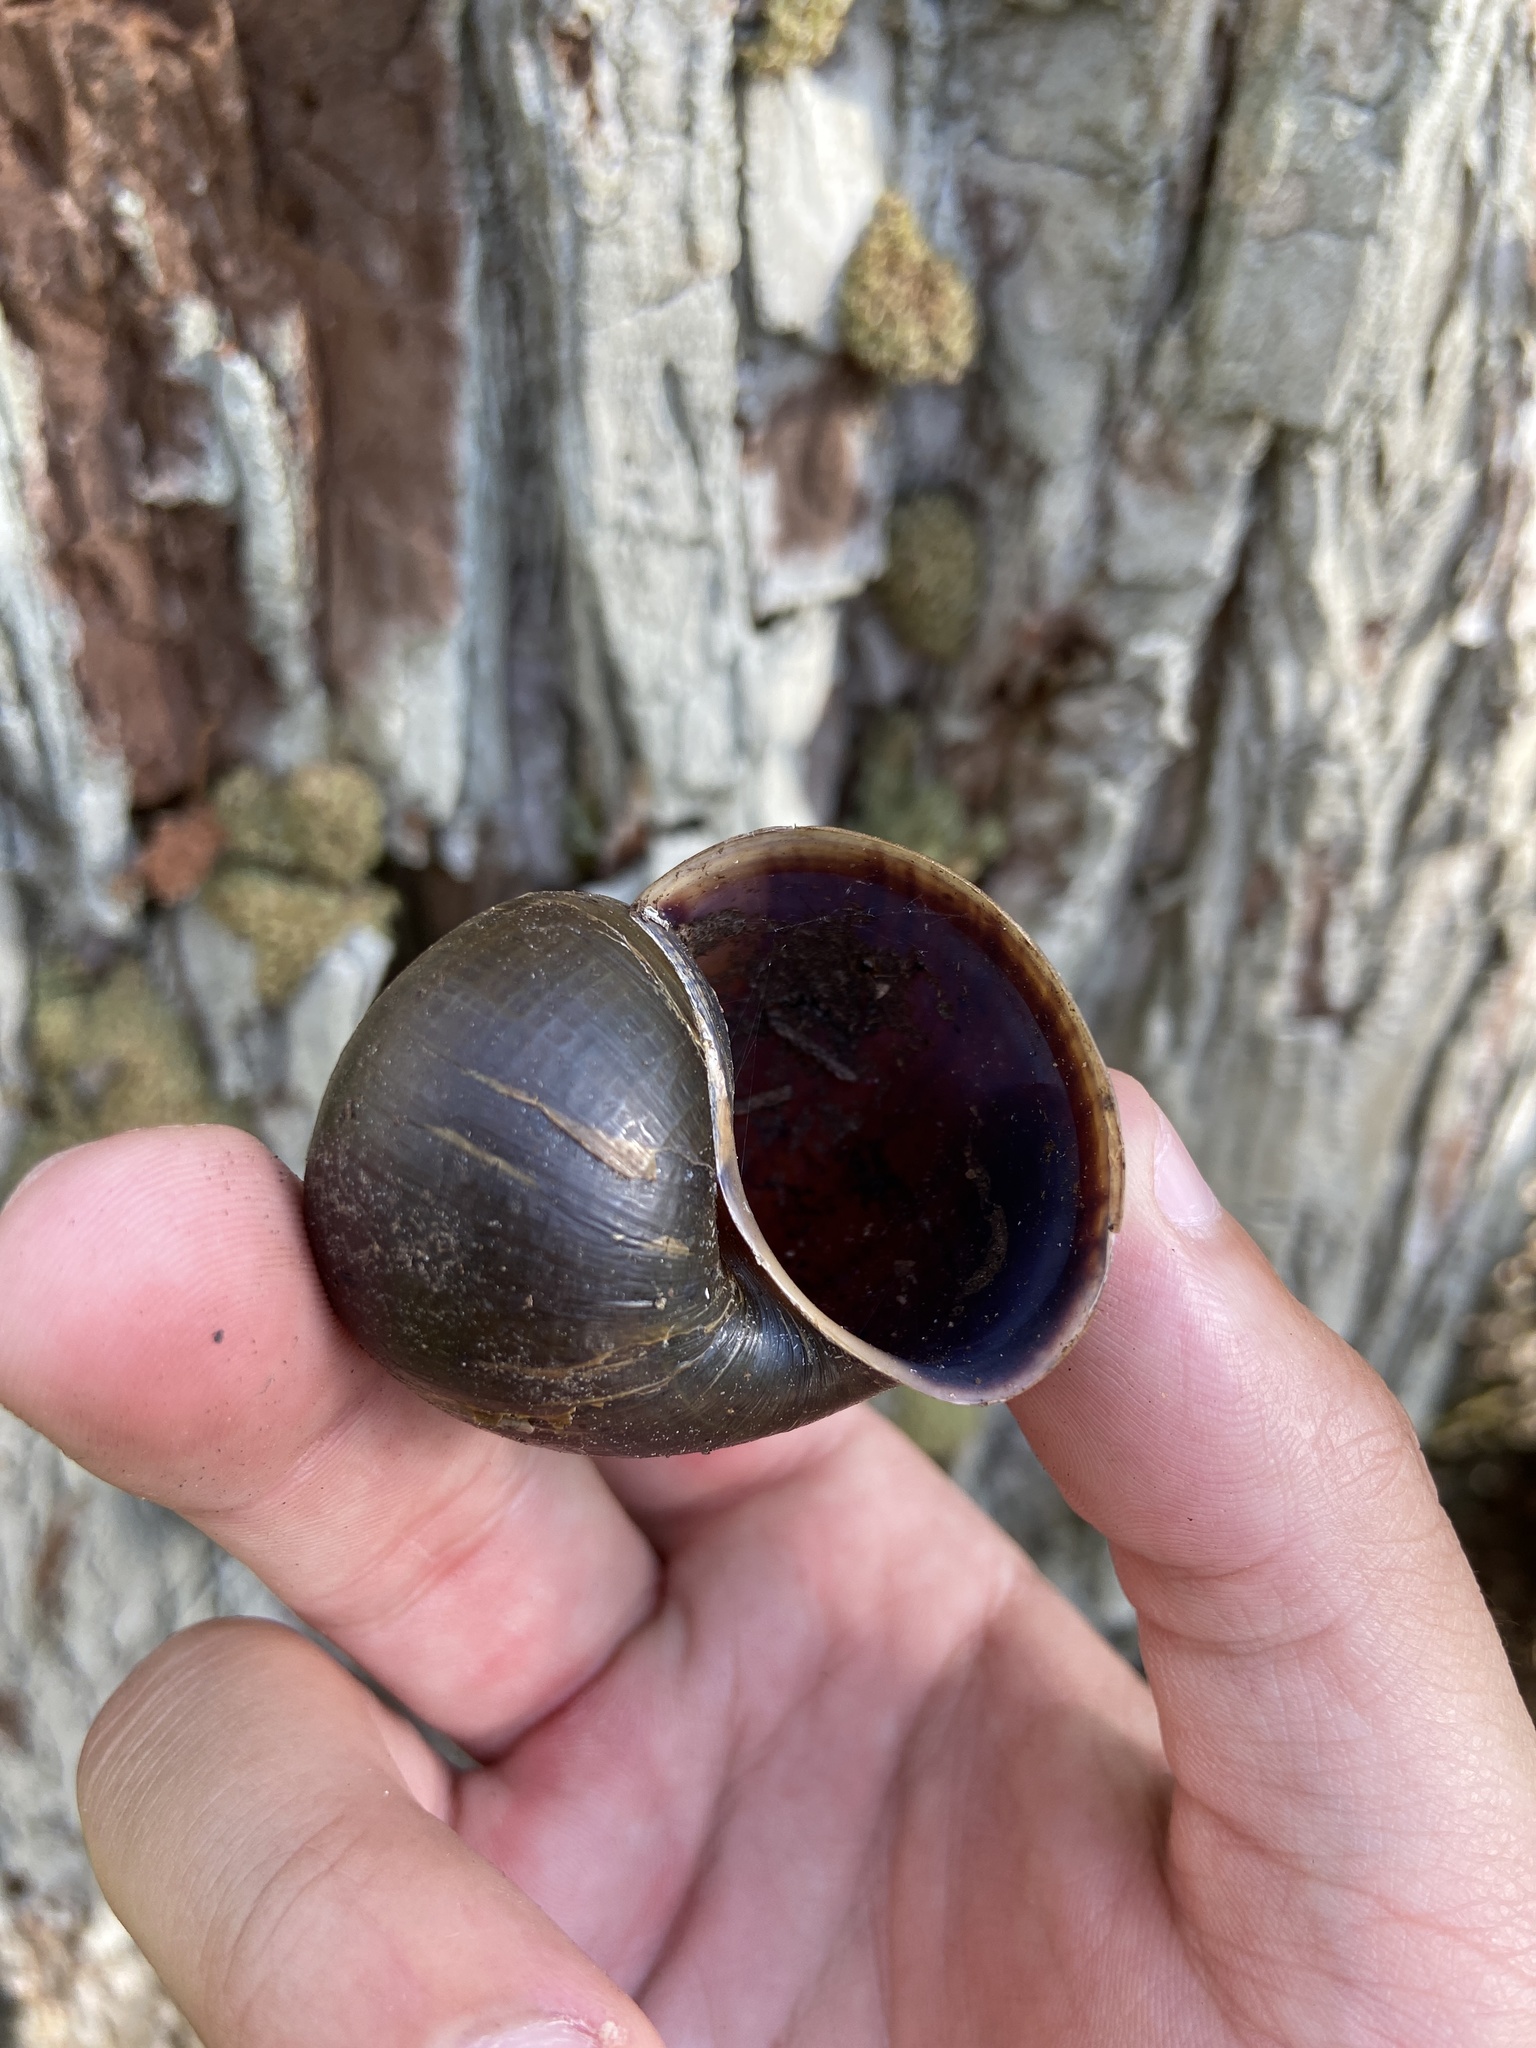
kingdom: Animalia
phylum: Mollusca
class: Gastropoda
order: Architaenioglossa
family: Ampullariidae
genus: Pomacea
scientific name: Pomacea paludosa
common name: Florida applesnail
